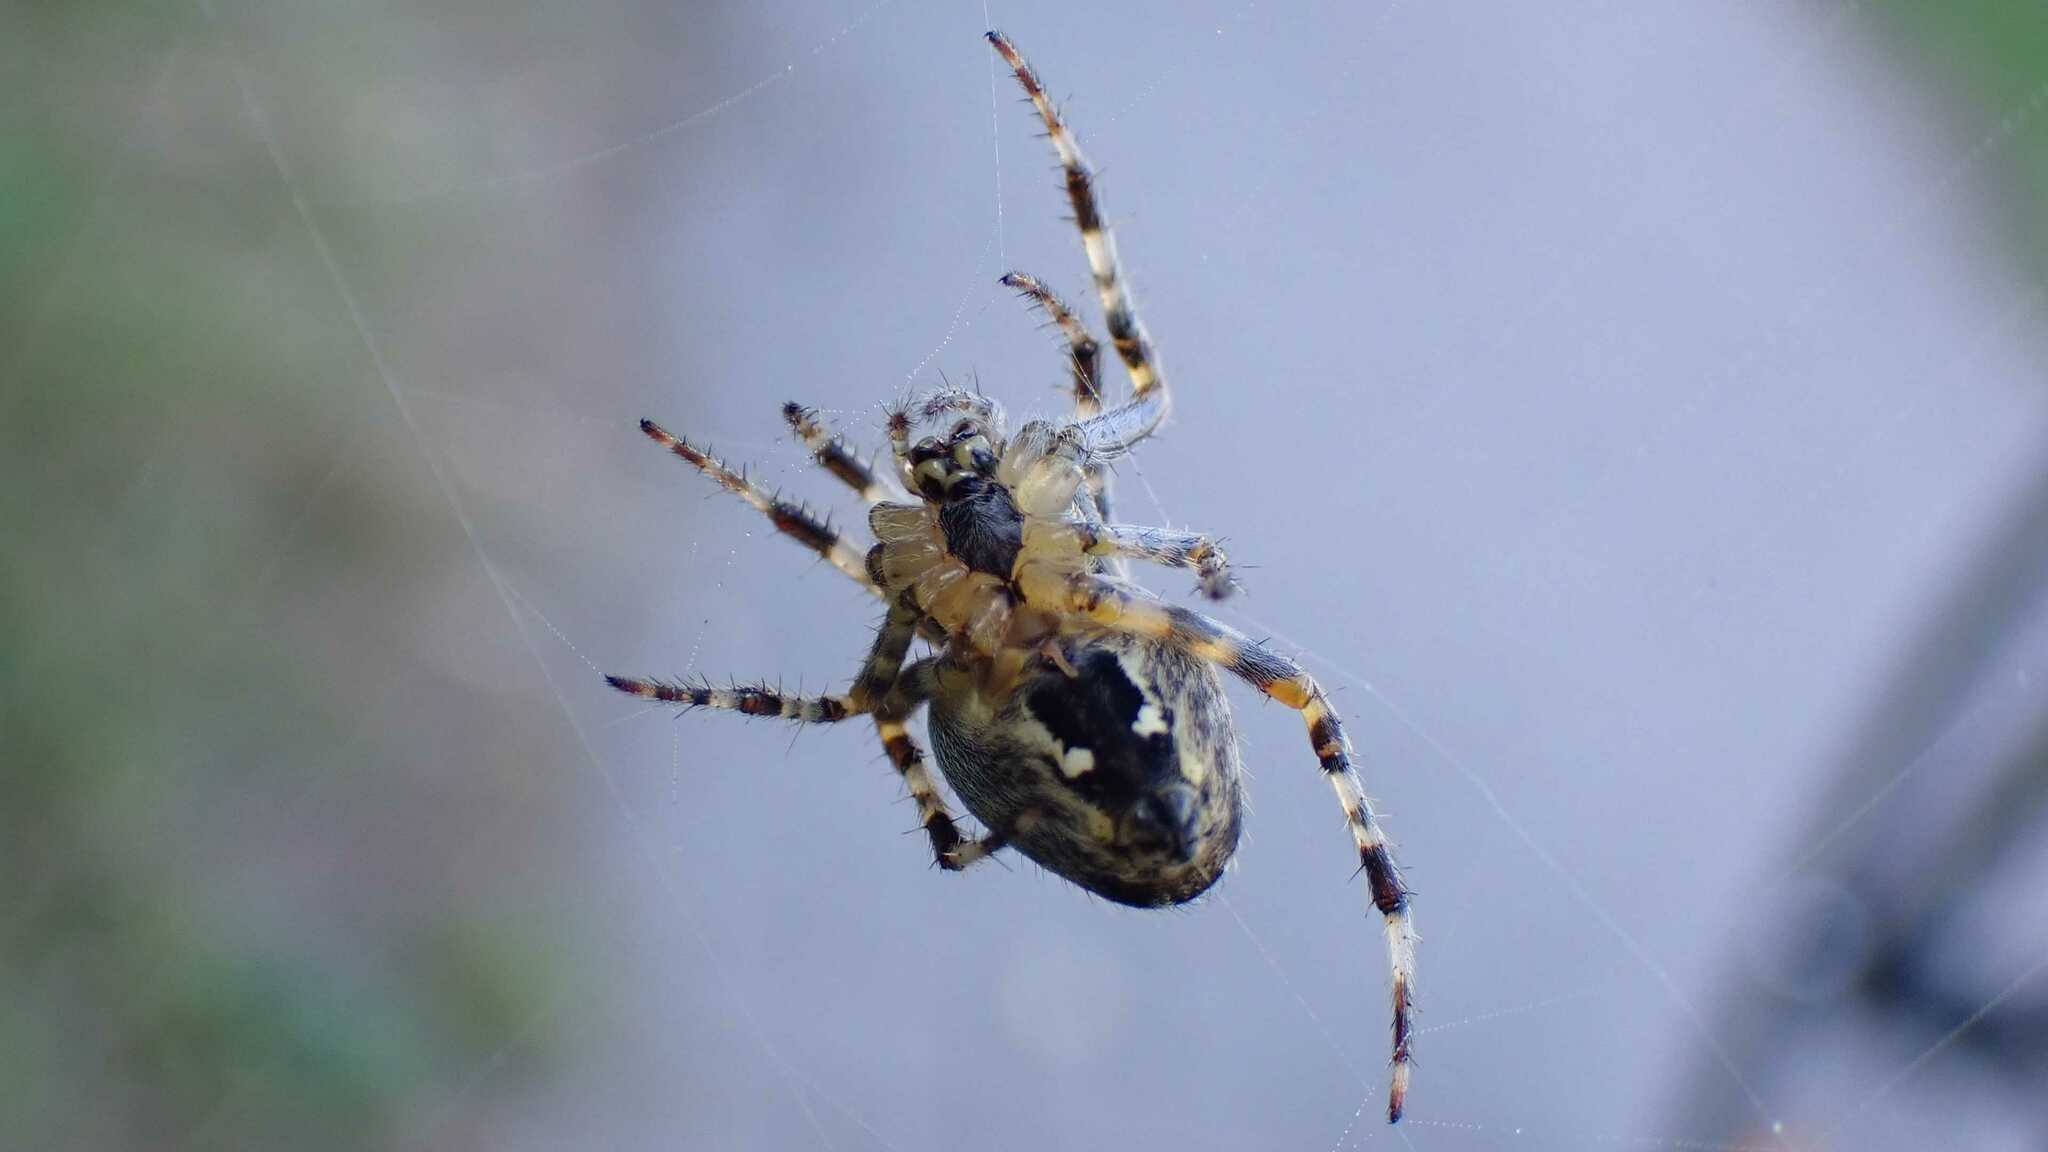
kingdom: Animalia
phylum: Arthropoda
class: Arachnida
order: Araneae
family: Araneidae
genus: Araneus
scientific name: Araneus diadematus
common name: Cross orbweaver
